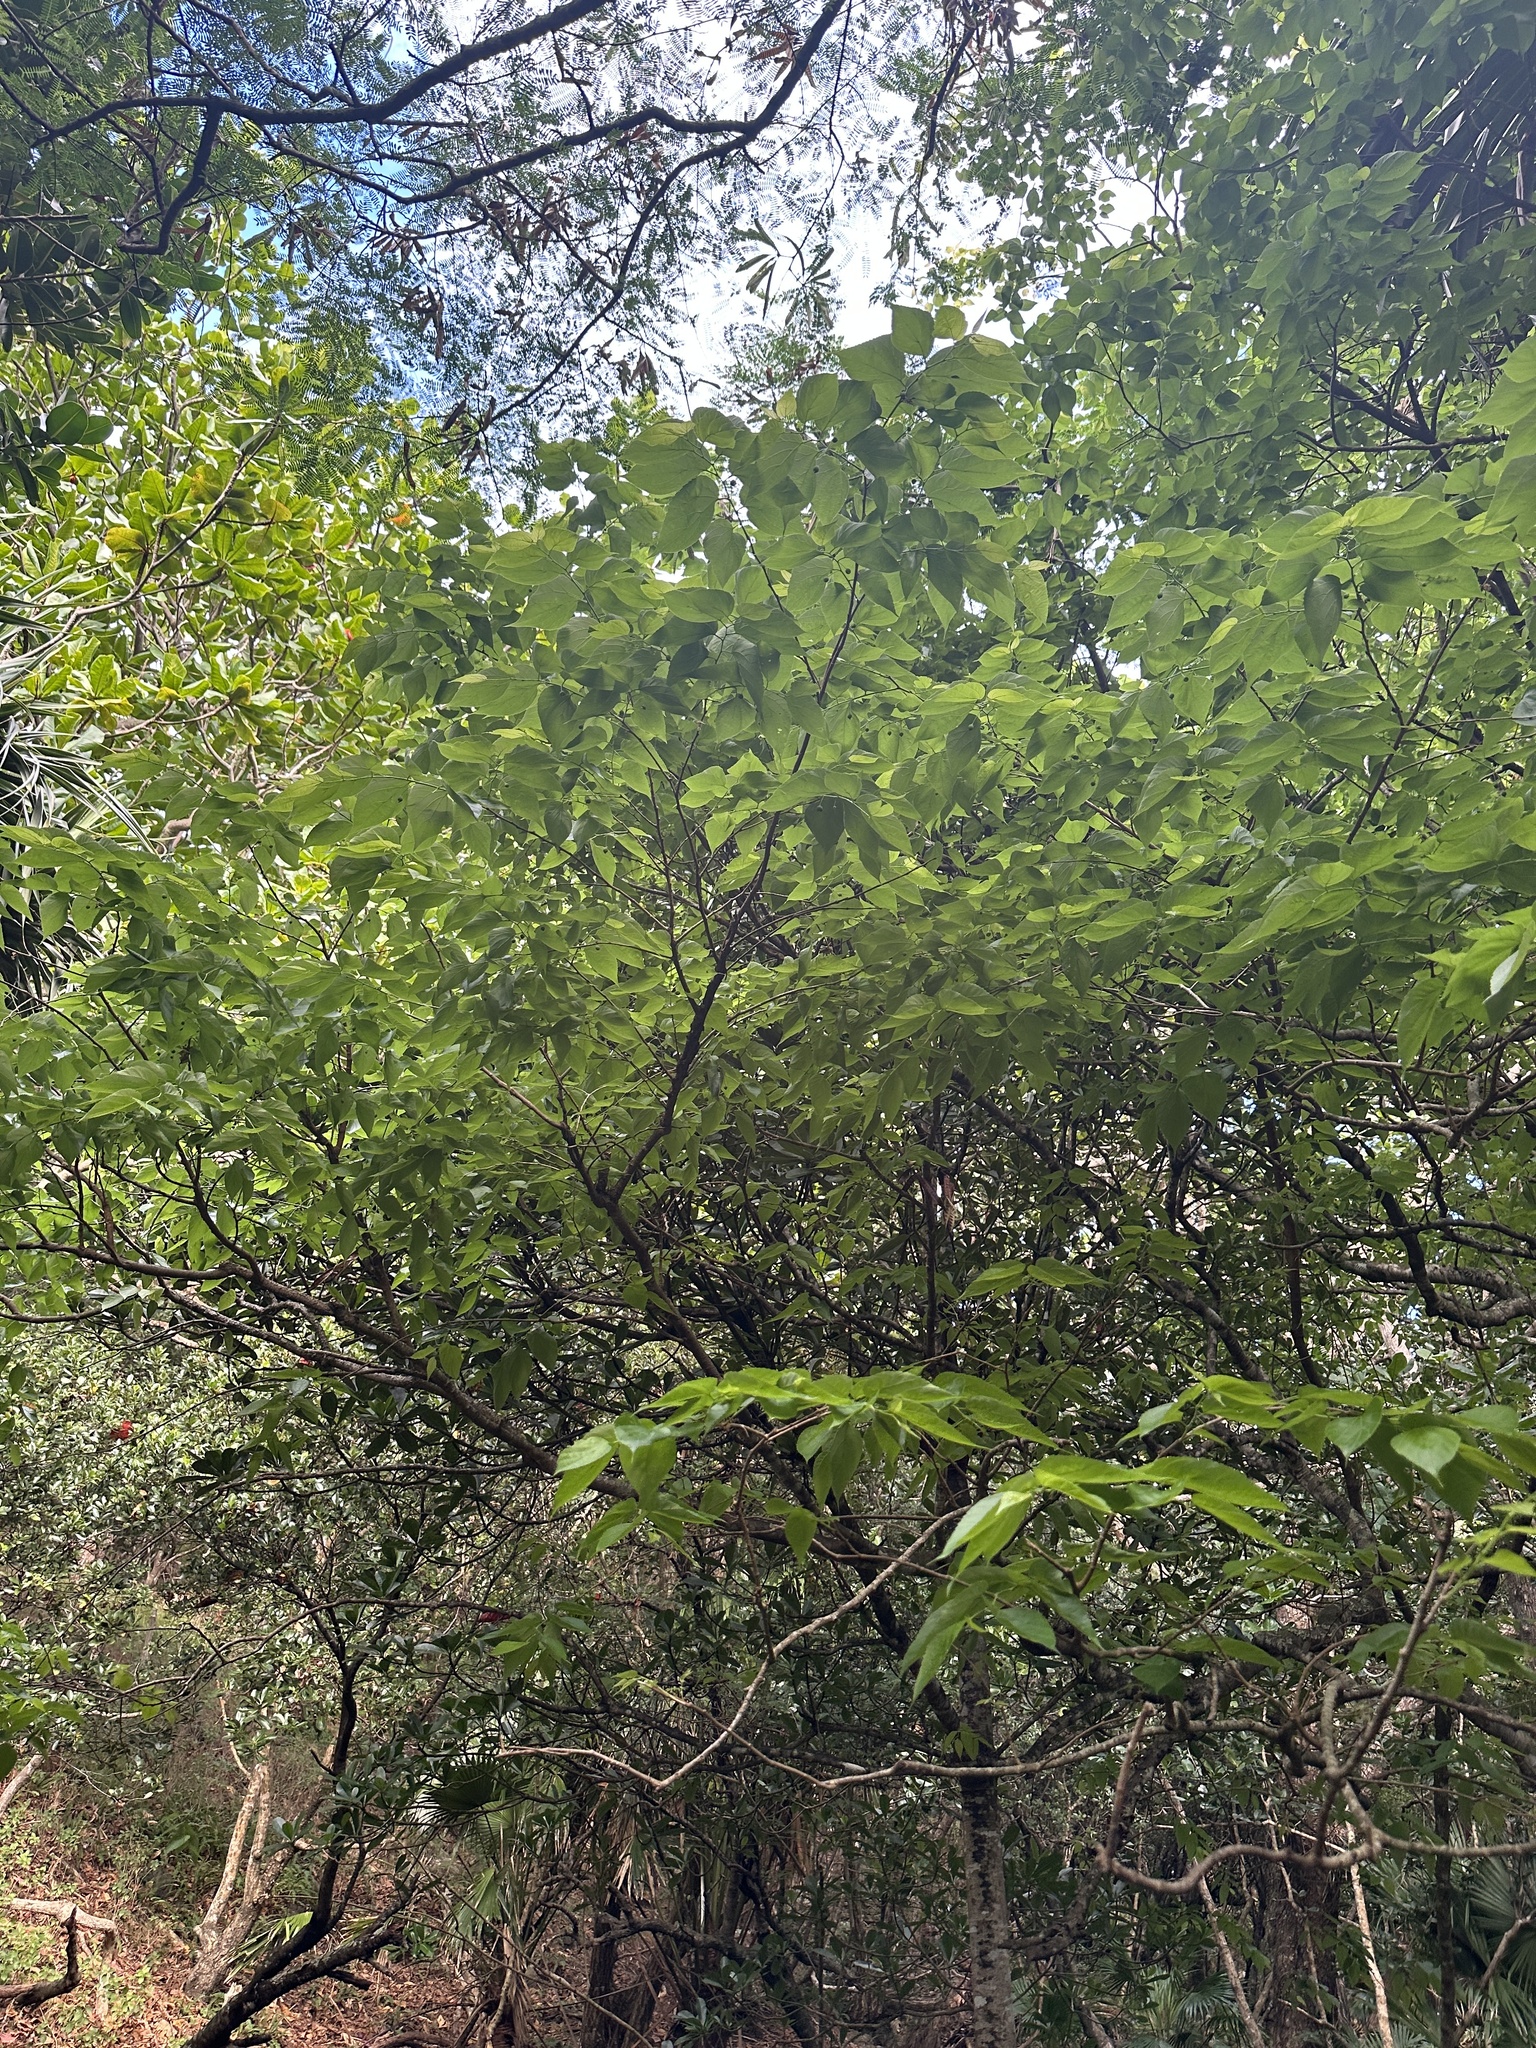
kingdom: Plantae
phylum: Tracheophyta
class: Magnoliopsida
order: Rosales
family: Cannabaceae
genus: Celtis
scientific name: Celtis boninensis
